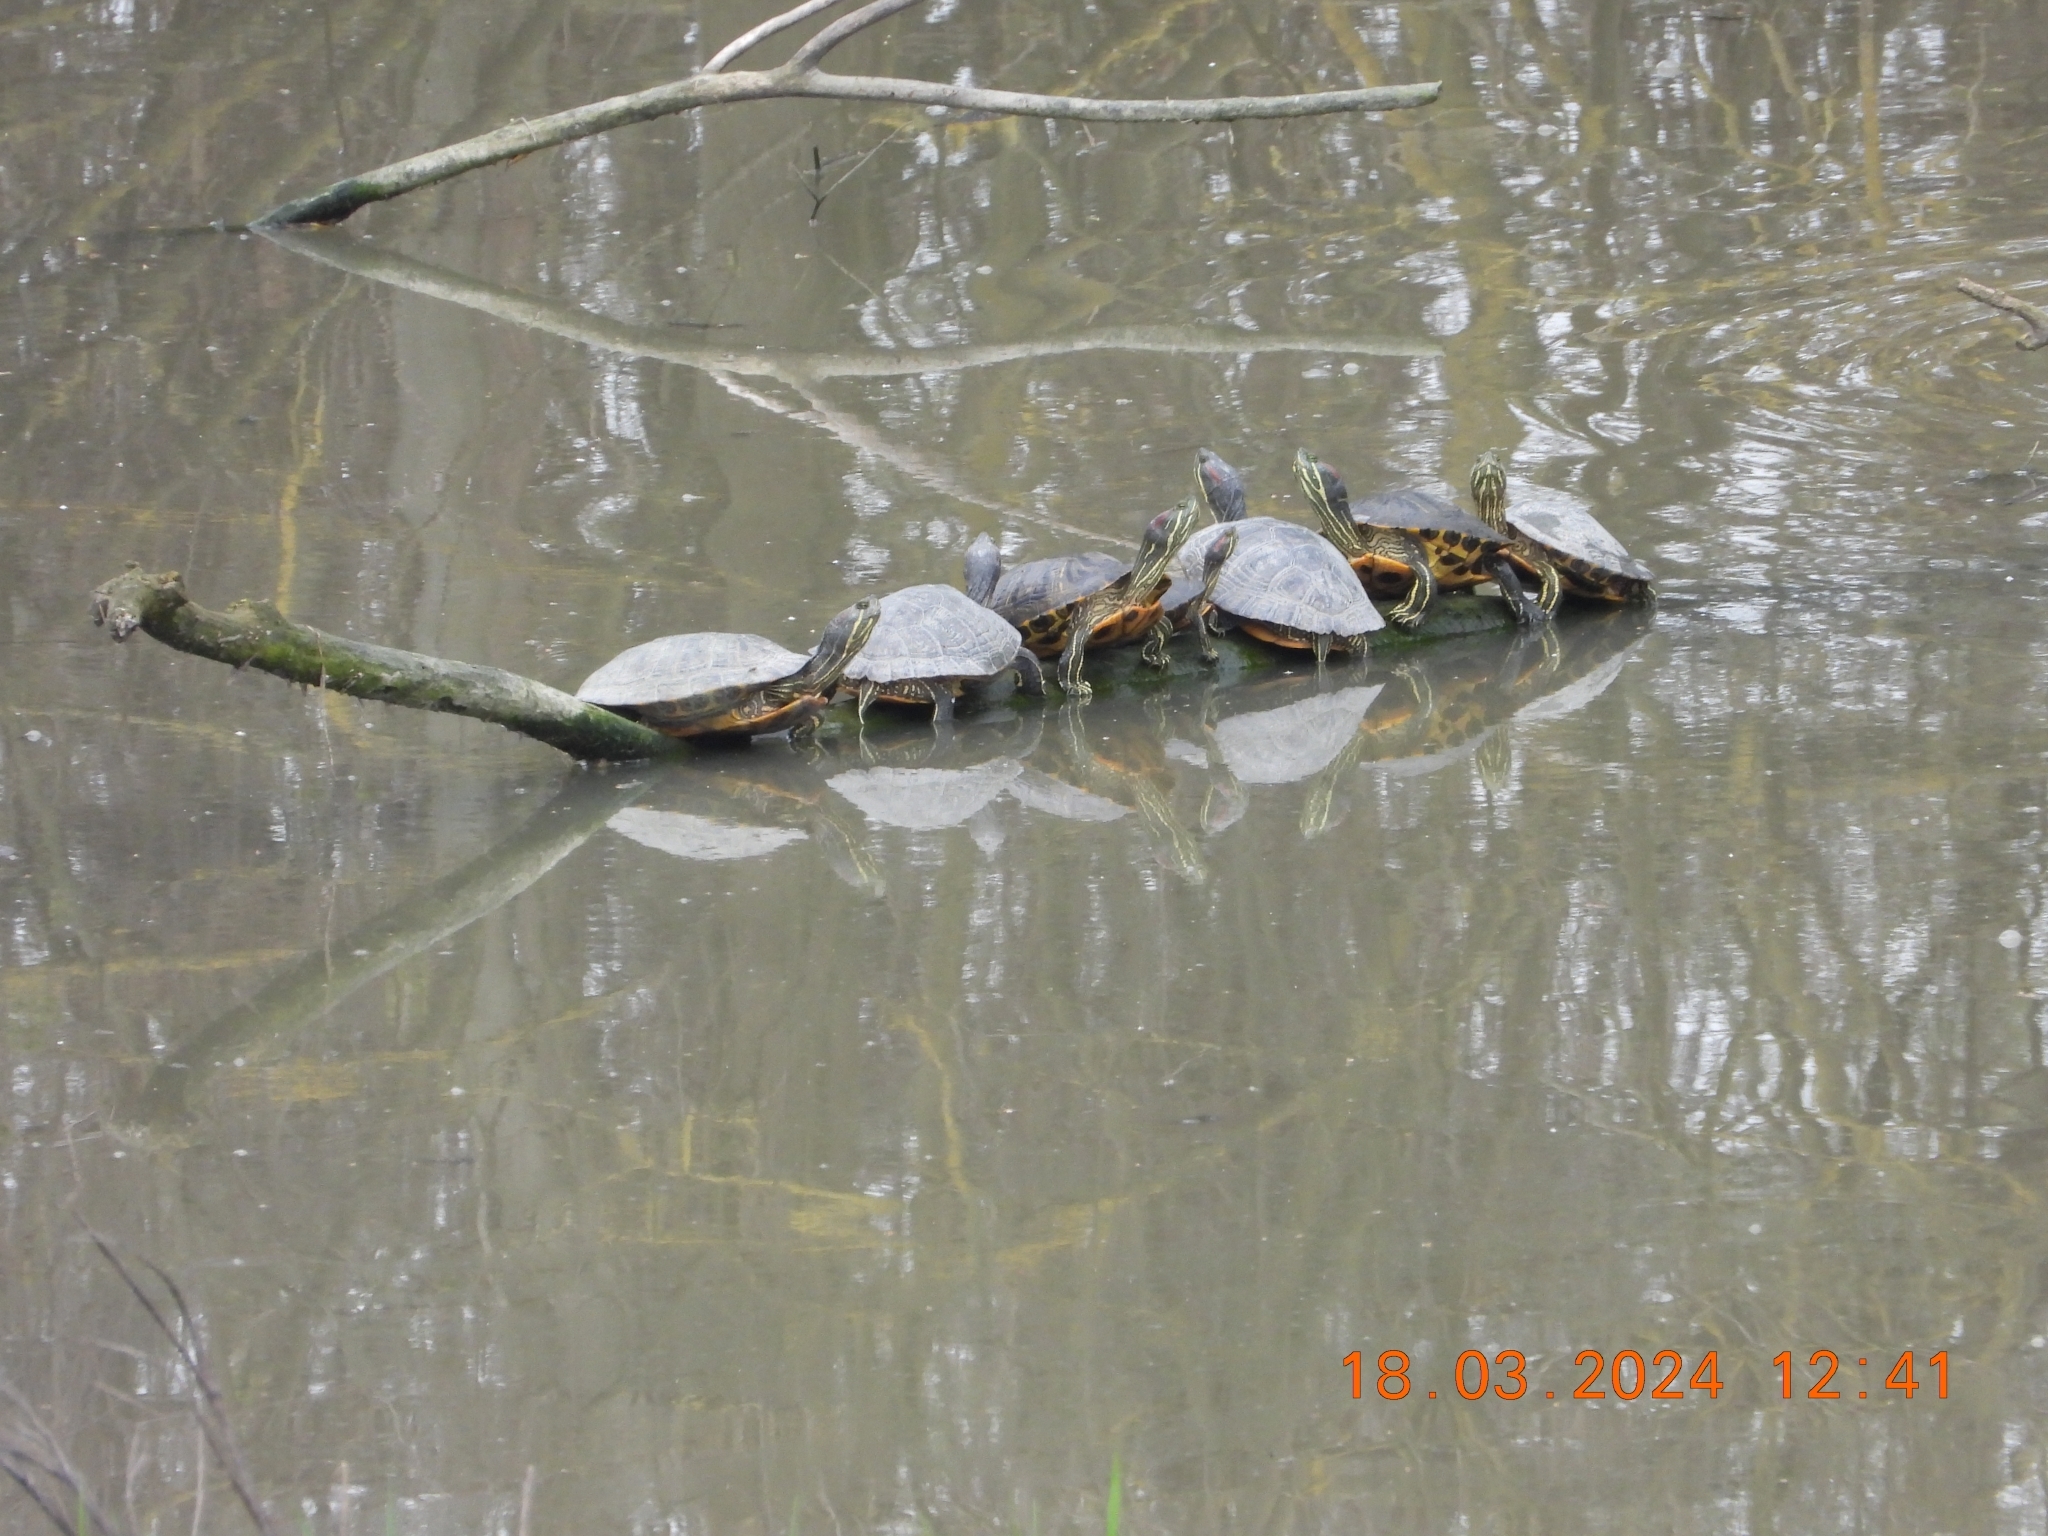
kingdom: Animalia
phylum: Chordata
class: Testudines
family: Emydidae
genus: Trachemys
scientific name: Trachemys scripta
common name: Slider
